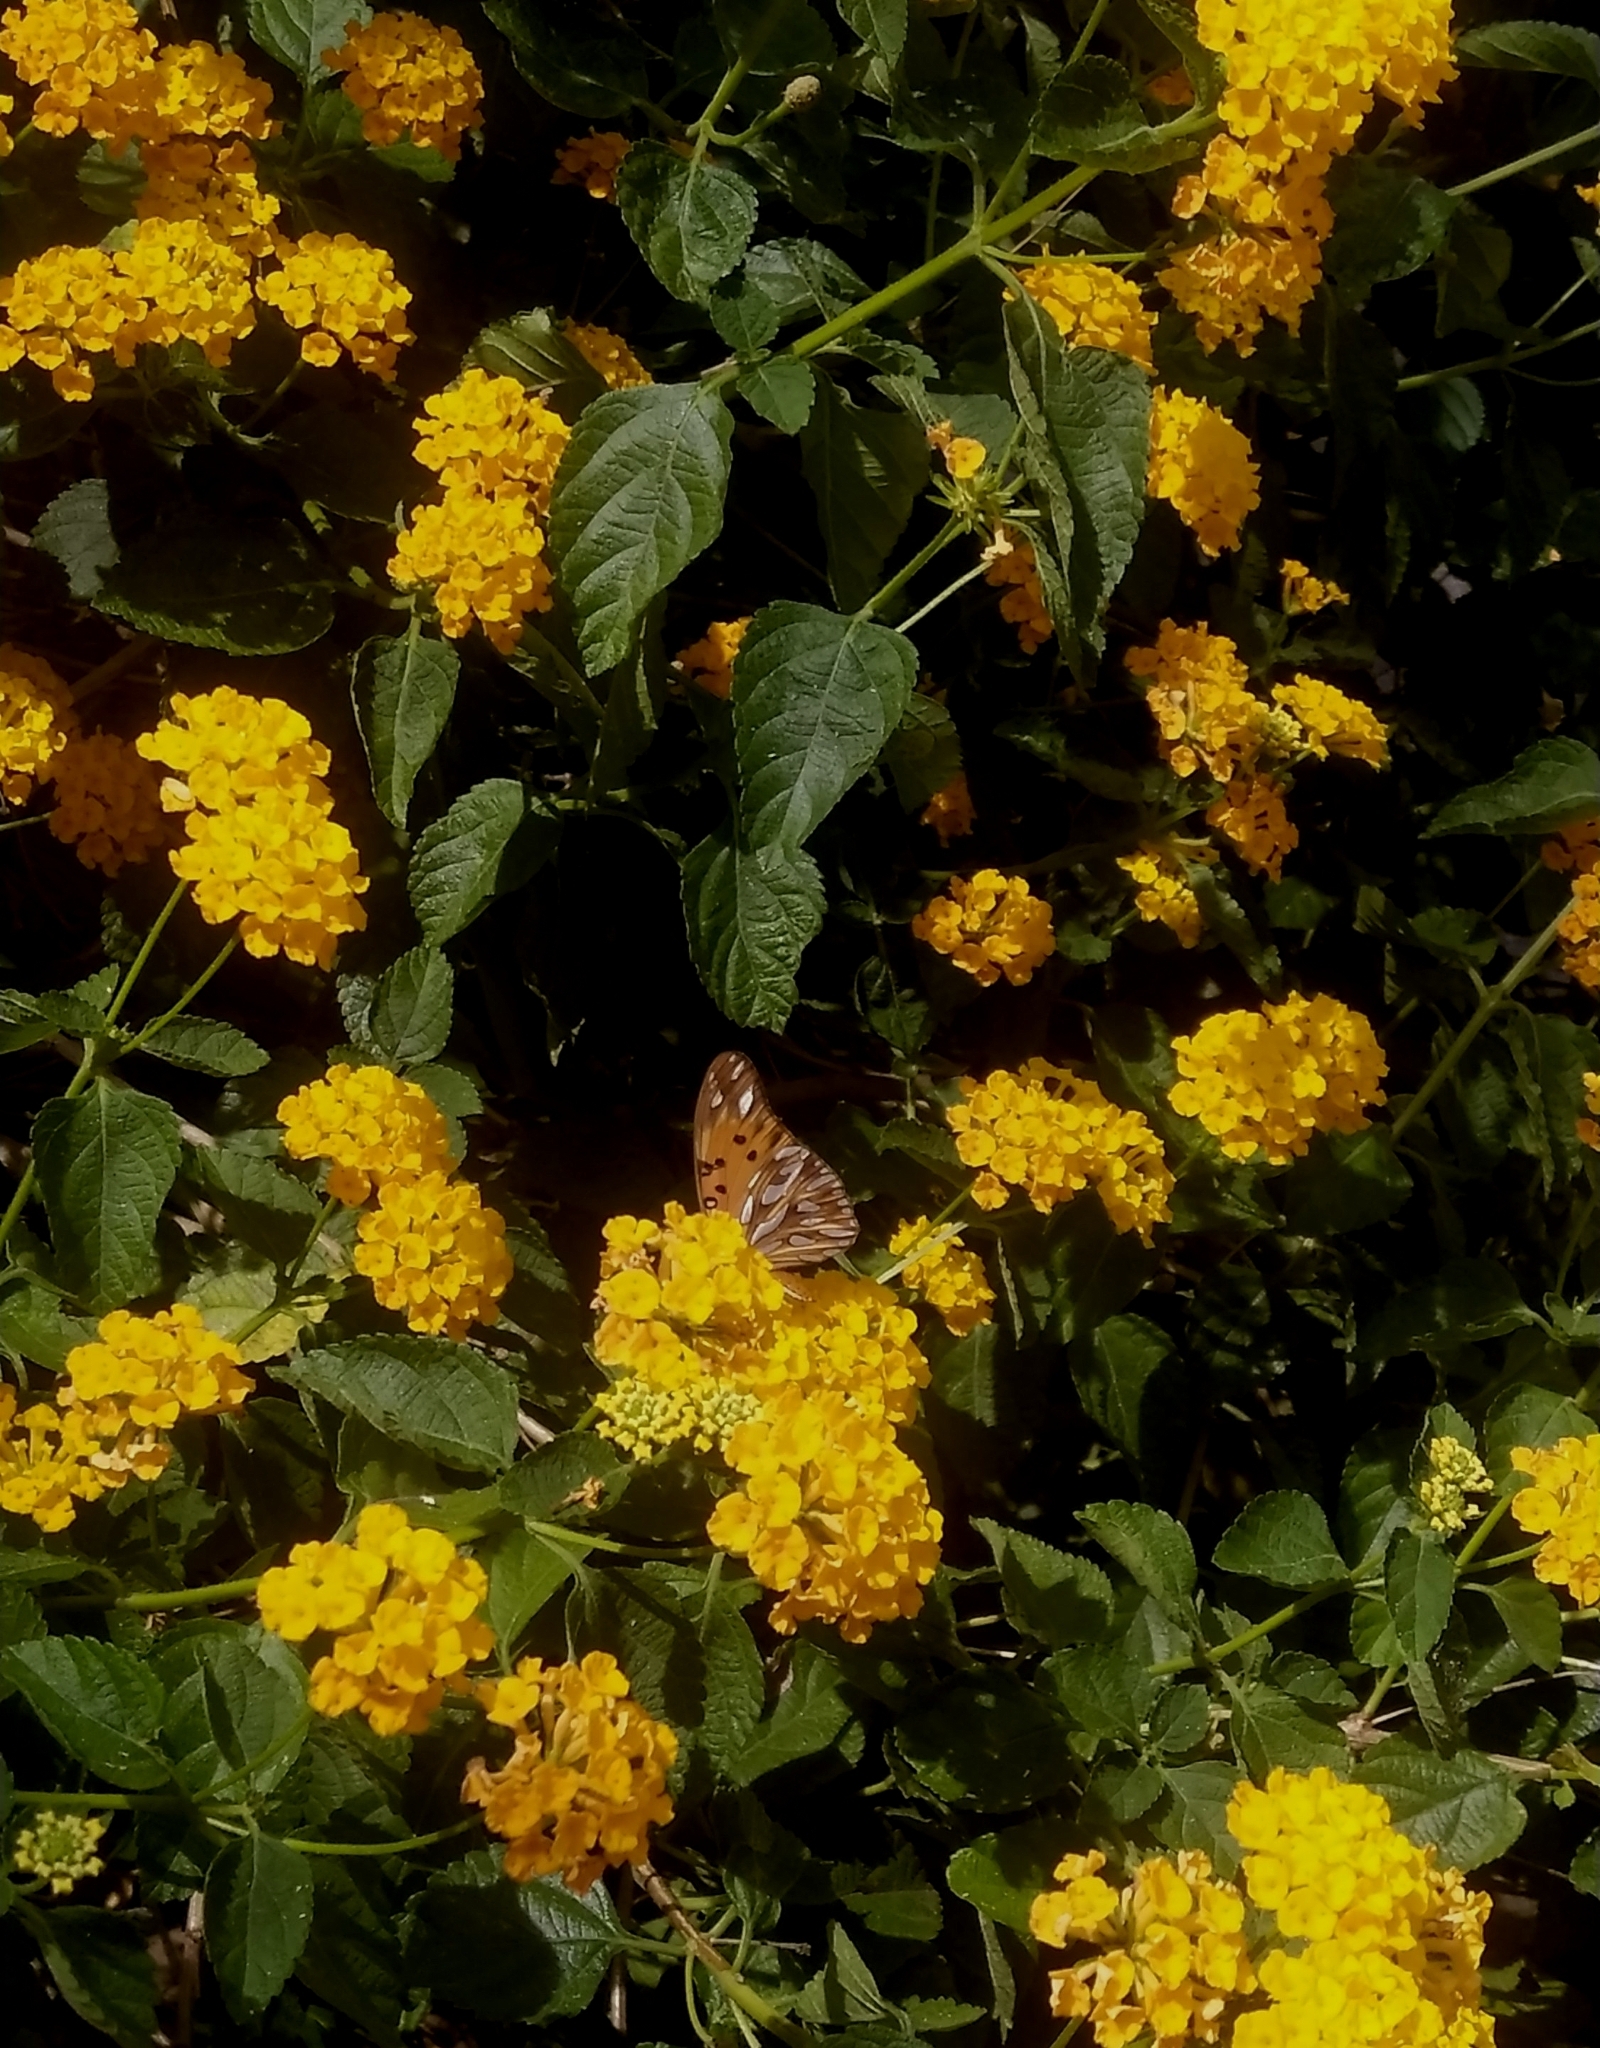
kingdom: Animalia
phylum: Arthropoda
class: Insecta
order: Lepidoptera
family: Nymphalidae
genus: Dione
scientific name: Dione vanillae
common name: Gulf fritillary
